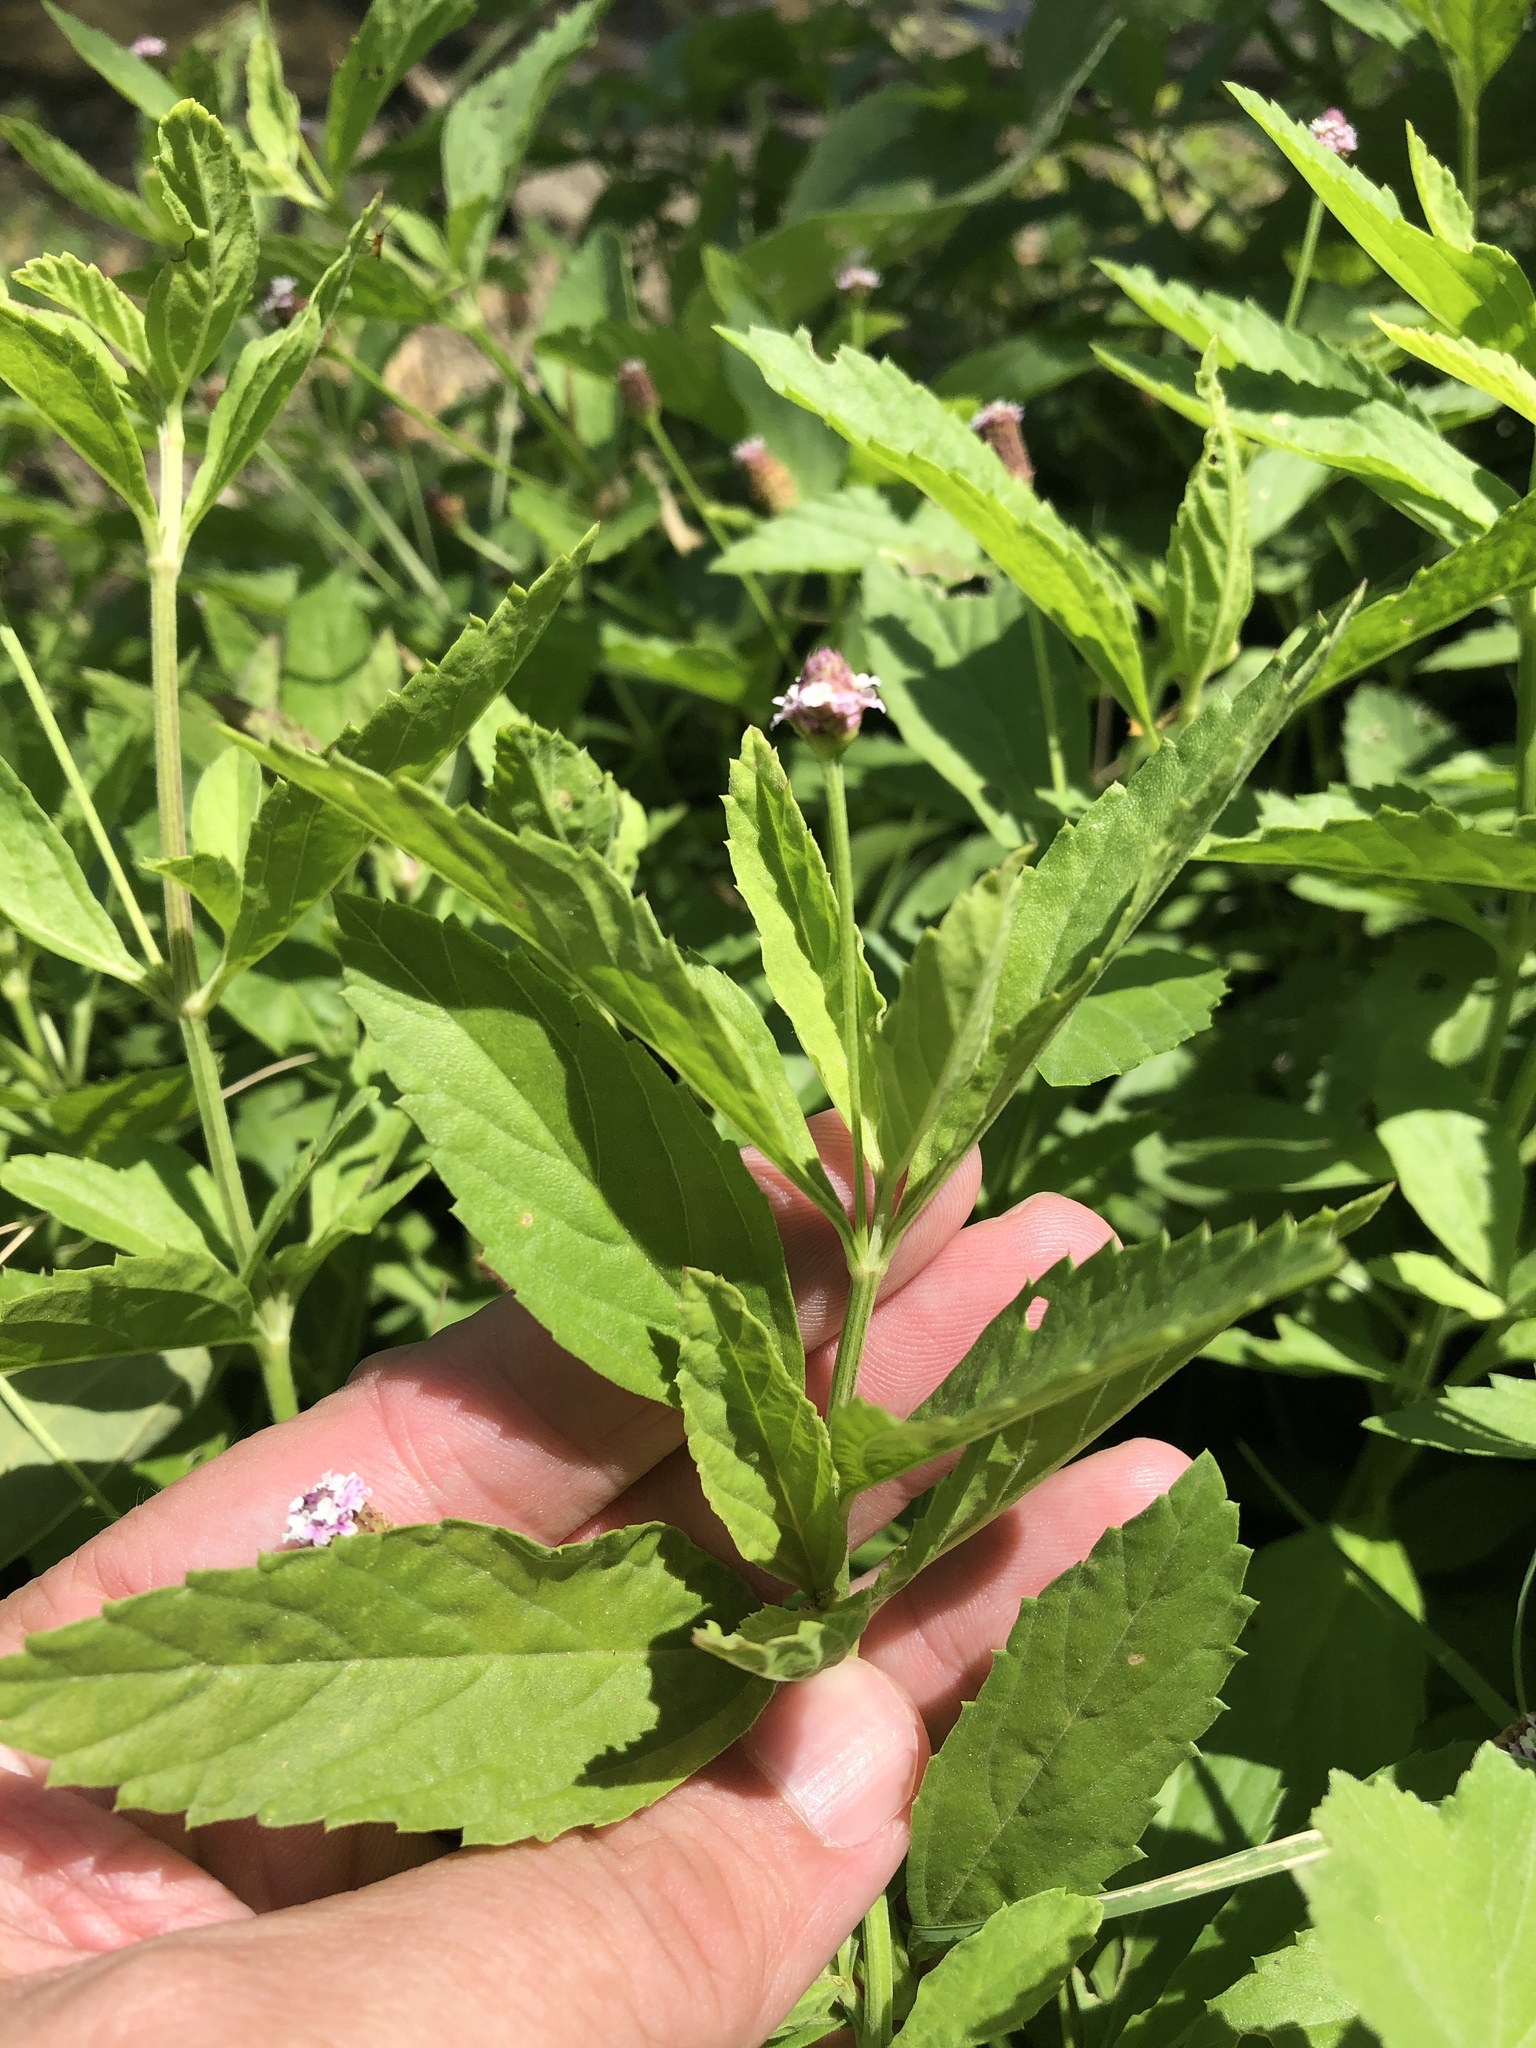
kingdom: Plantae
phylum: Tracheophyta
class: Magnoliopsida
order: Lamiales
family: Verbenaceae
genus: Phyla
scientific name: Phyla lanceolata
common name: Northern fogfruit
